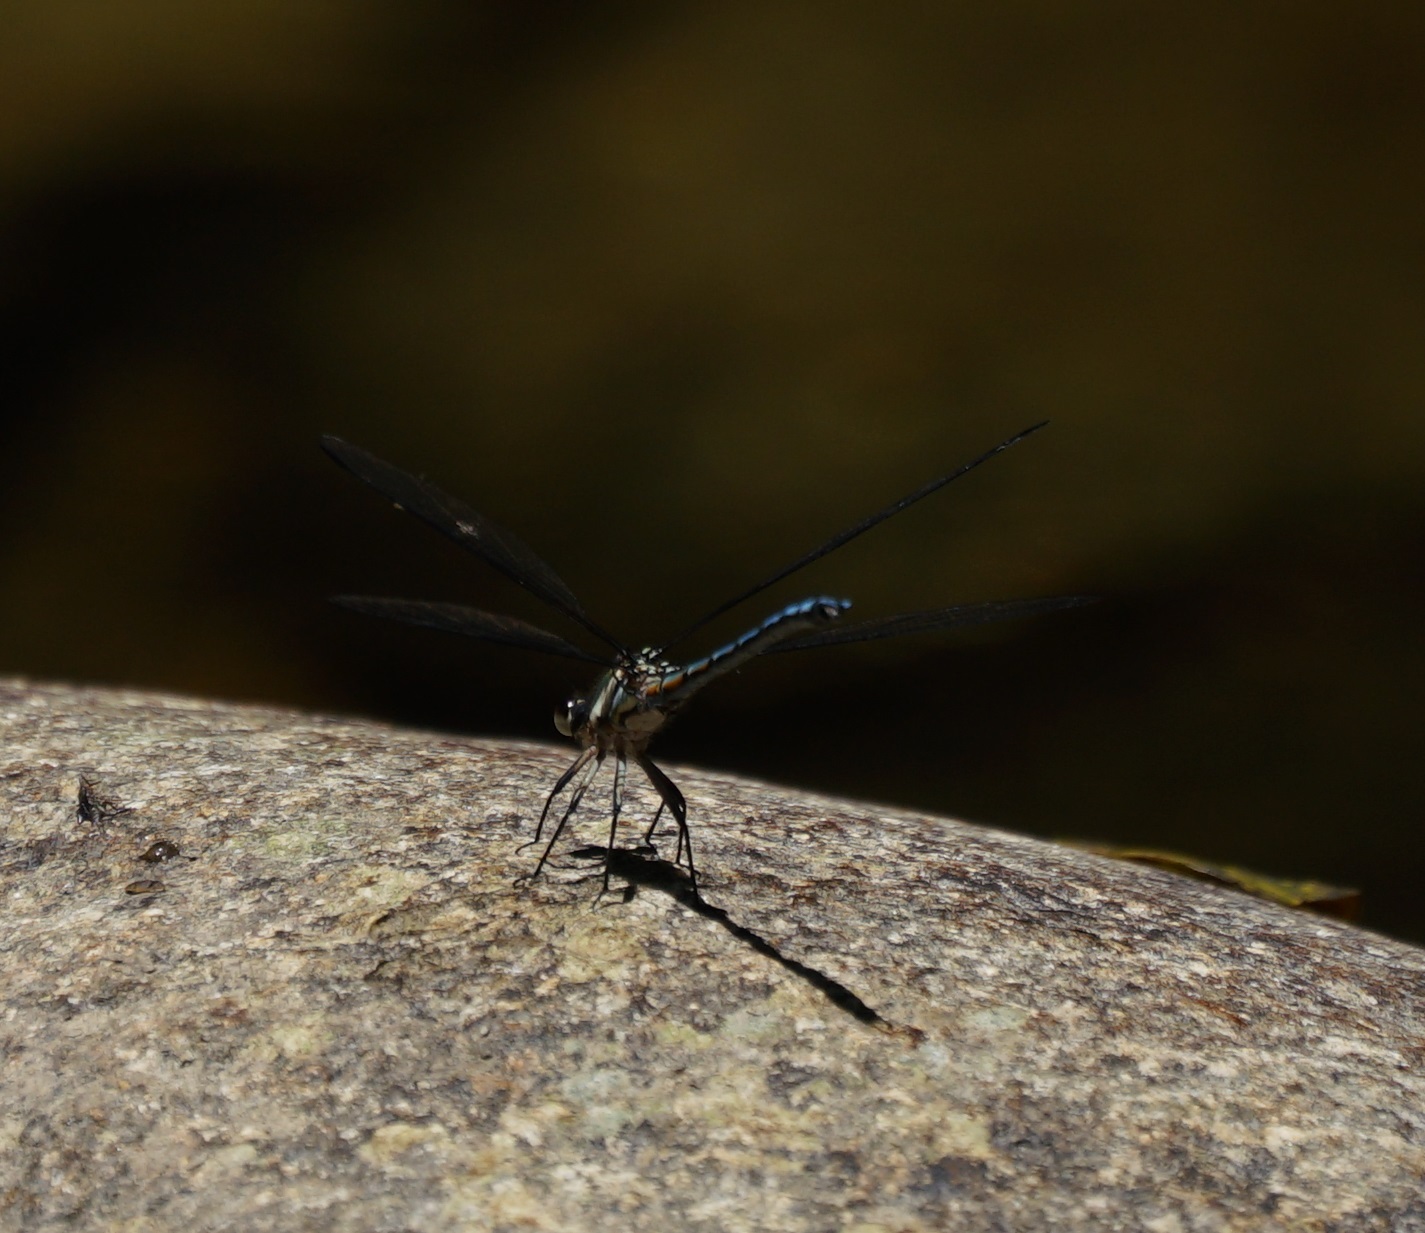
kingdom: Animalia
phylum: Arthropoda
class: Insecta
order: Odonata
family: Lestoideidae
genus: Diphlebia
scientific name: Diphlebia lestoides
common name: Whitewater rockmaster
